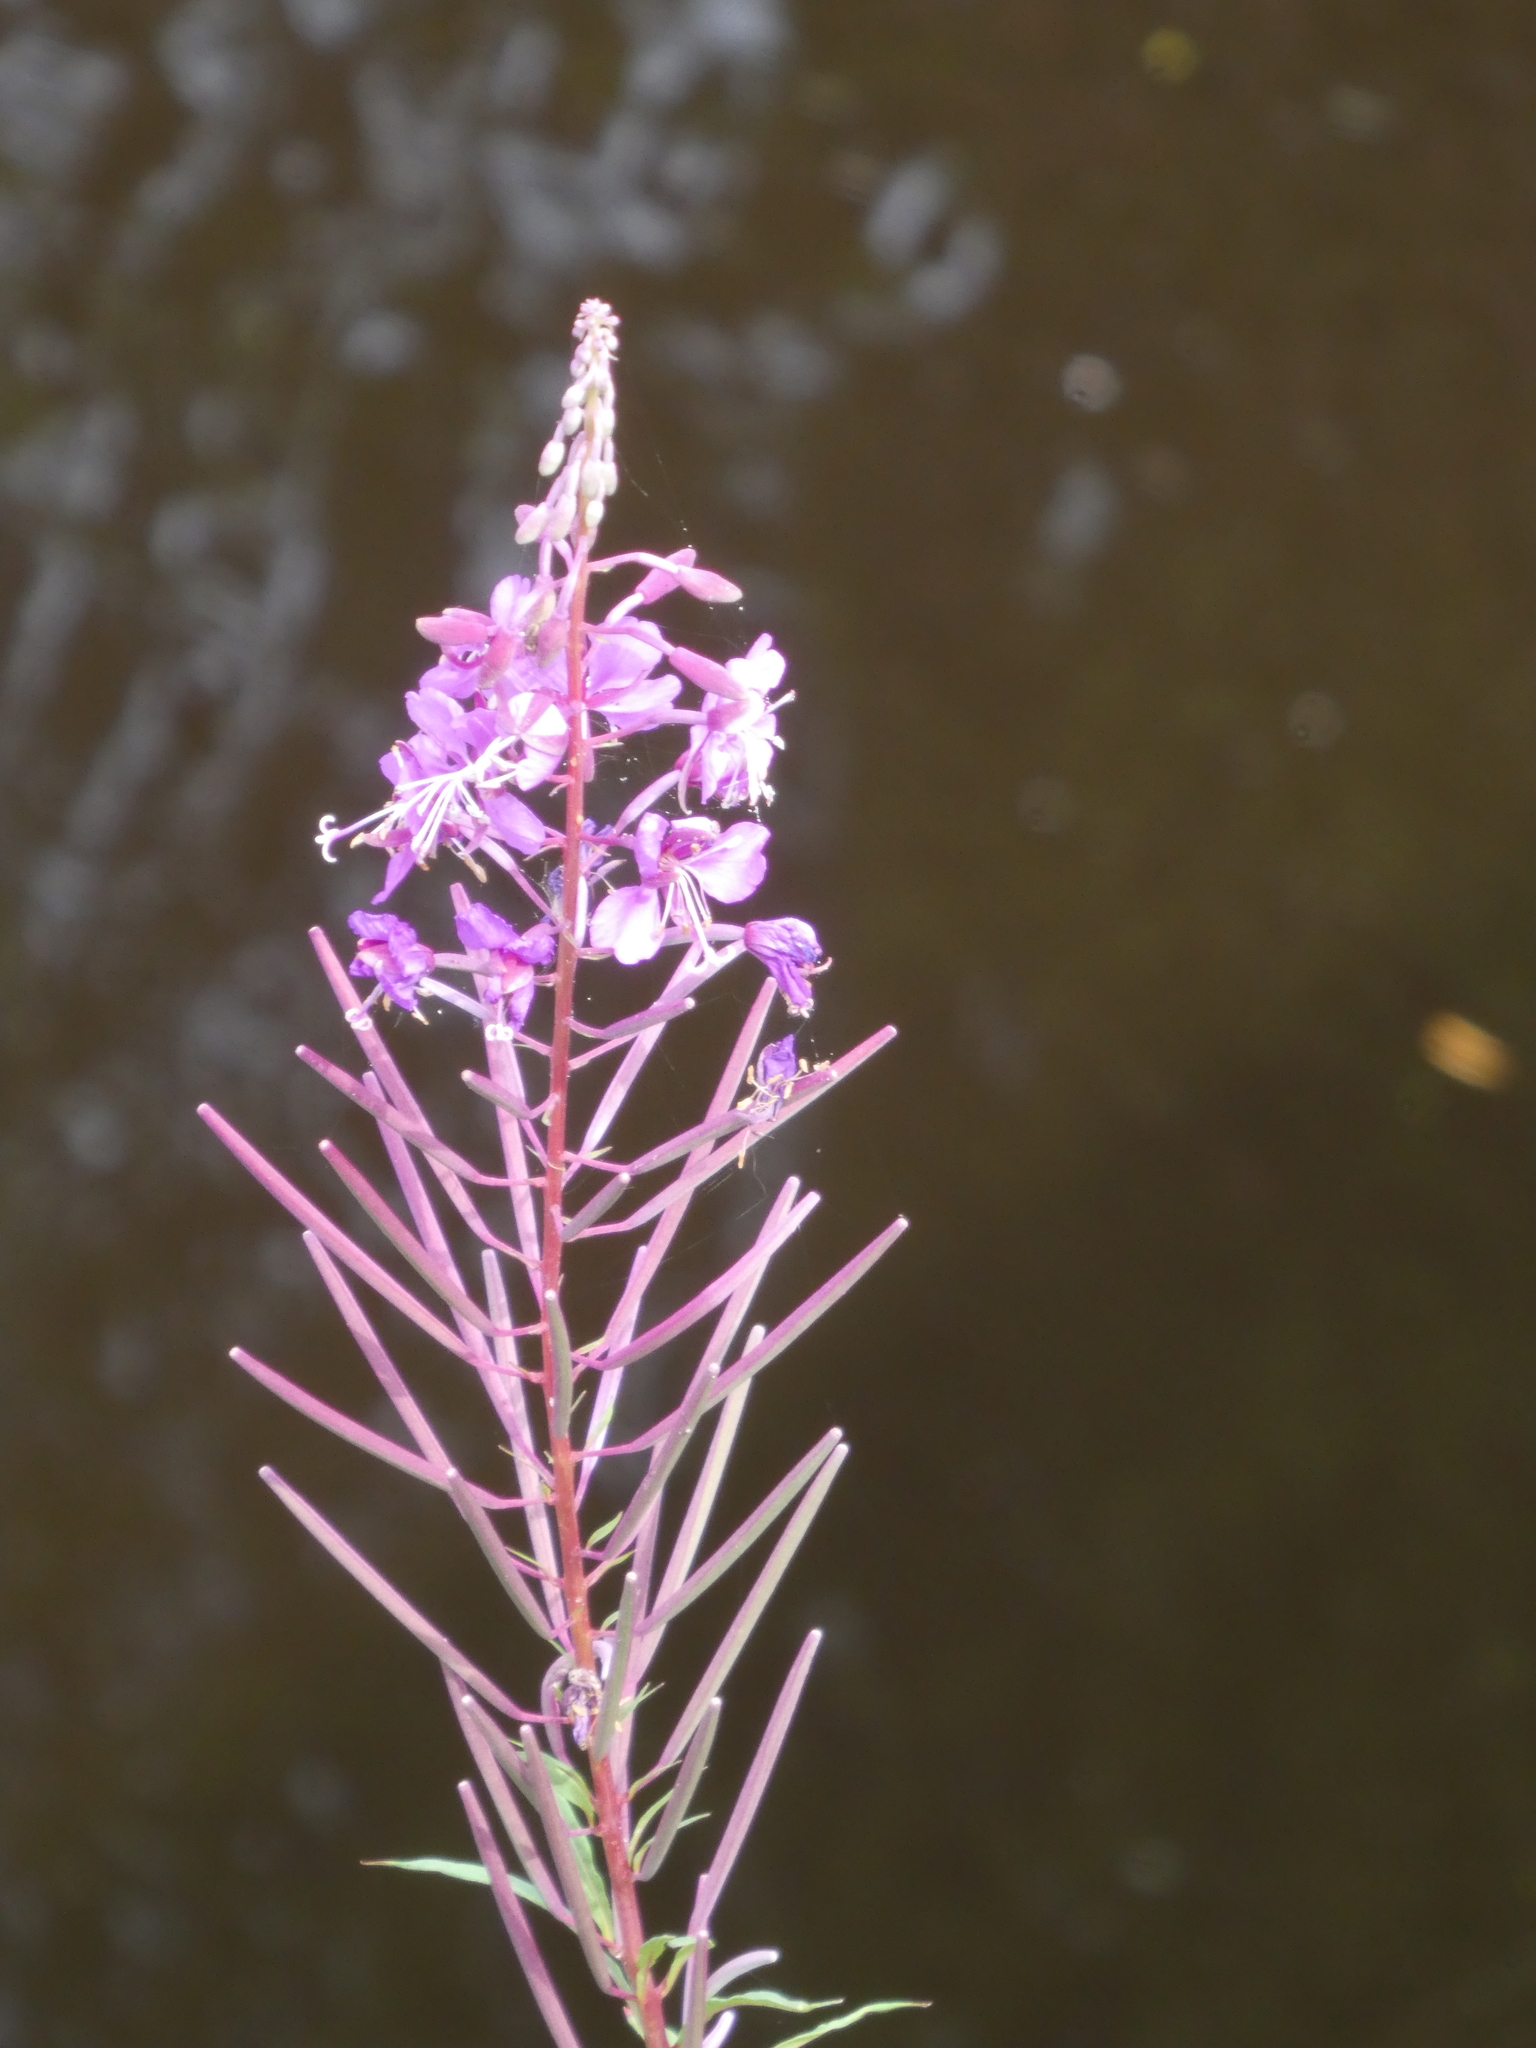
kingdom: Plantae
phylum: Tracheophyta
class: Magnoliopsida
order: Myrtales
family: Onagraceae
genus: Chamaenerion
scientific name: Chamaenerion angustifolium
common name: Fireweed
